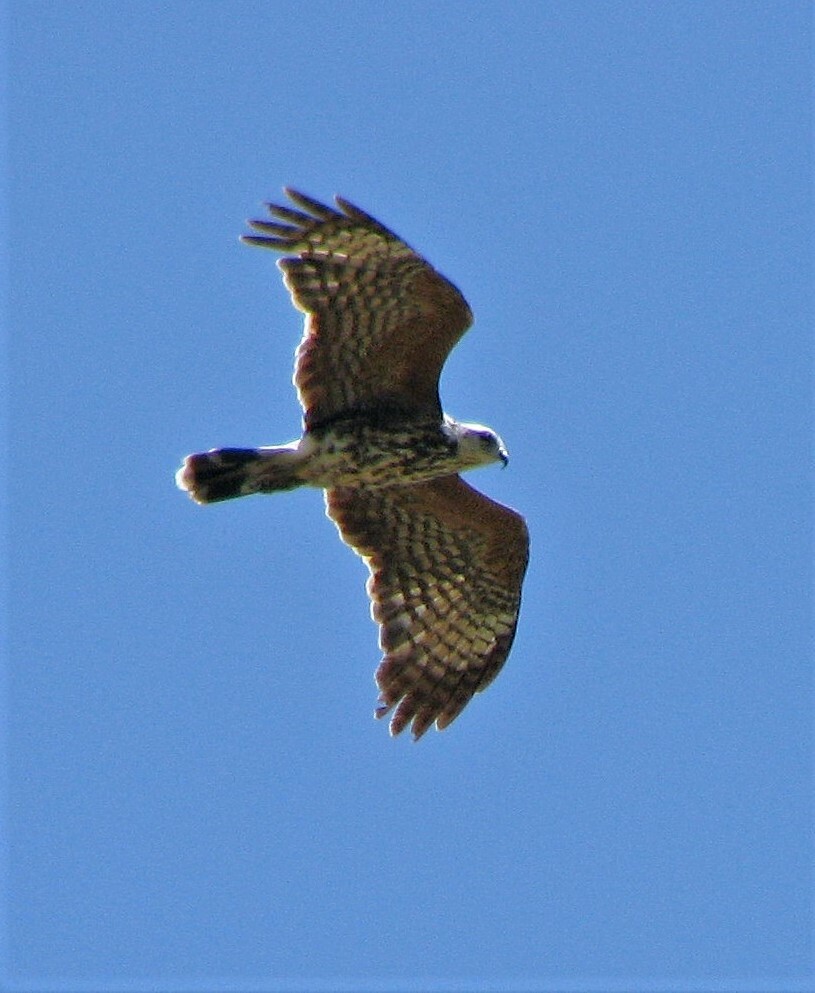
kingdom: Animalia
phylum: Chordata
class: Aves
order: Accipitriformes
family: Accipitridae
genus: Rostrhamus
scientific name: Rostrhamus sociabilis
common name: Snail kite
